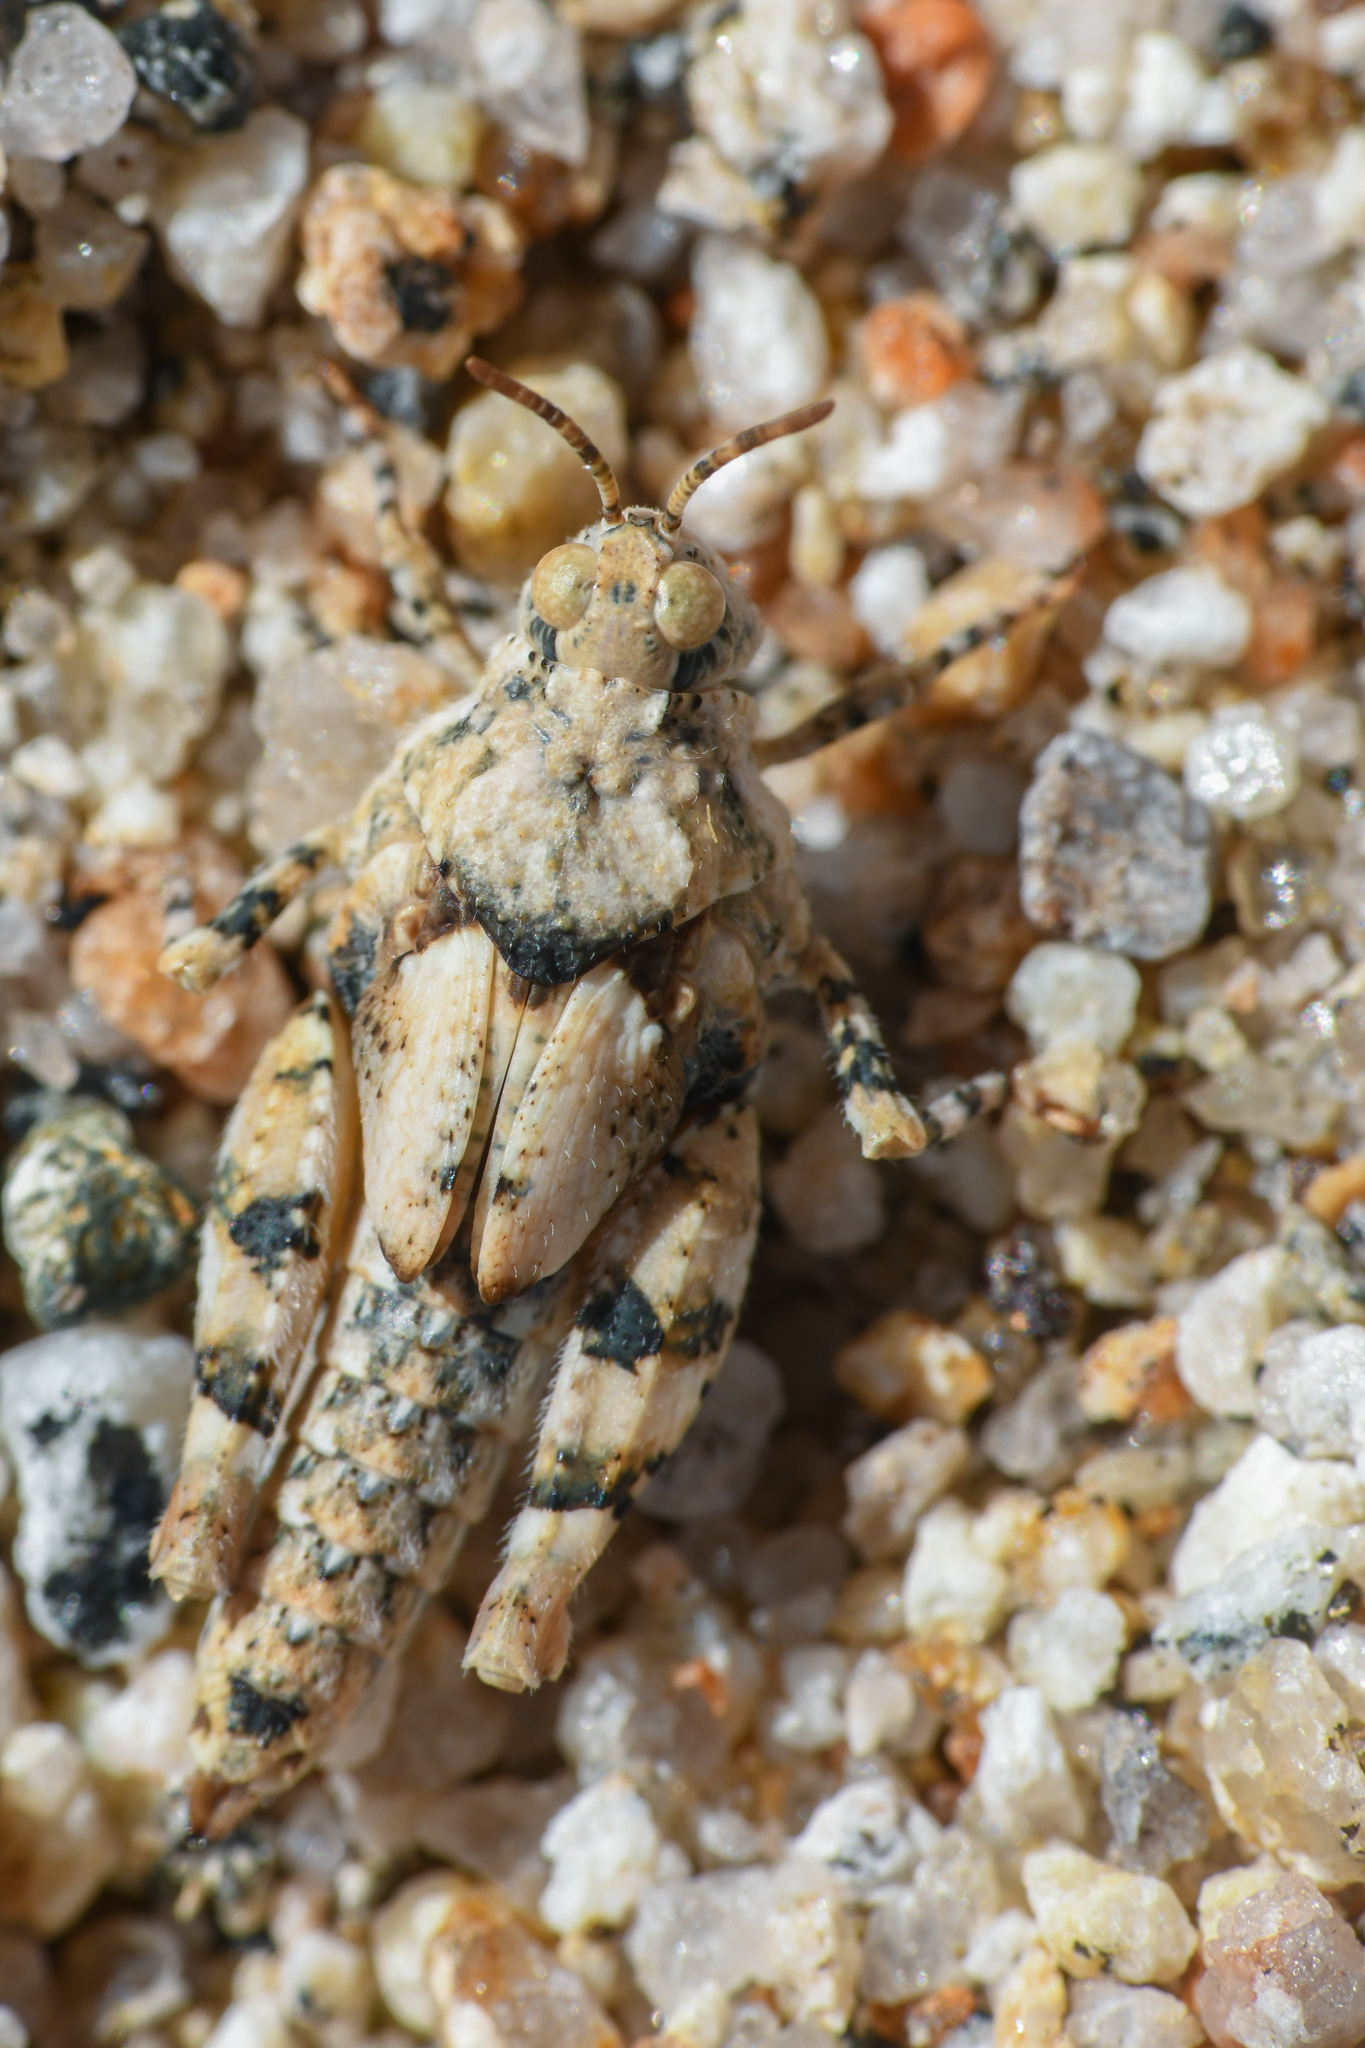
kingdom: Animalia
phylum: Arthropoda
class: Insecta
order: Orthoptera
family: Acrididae
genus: Cibolacris
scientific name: Cibolacris parviceps
